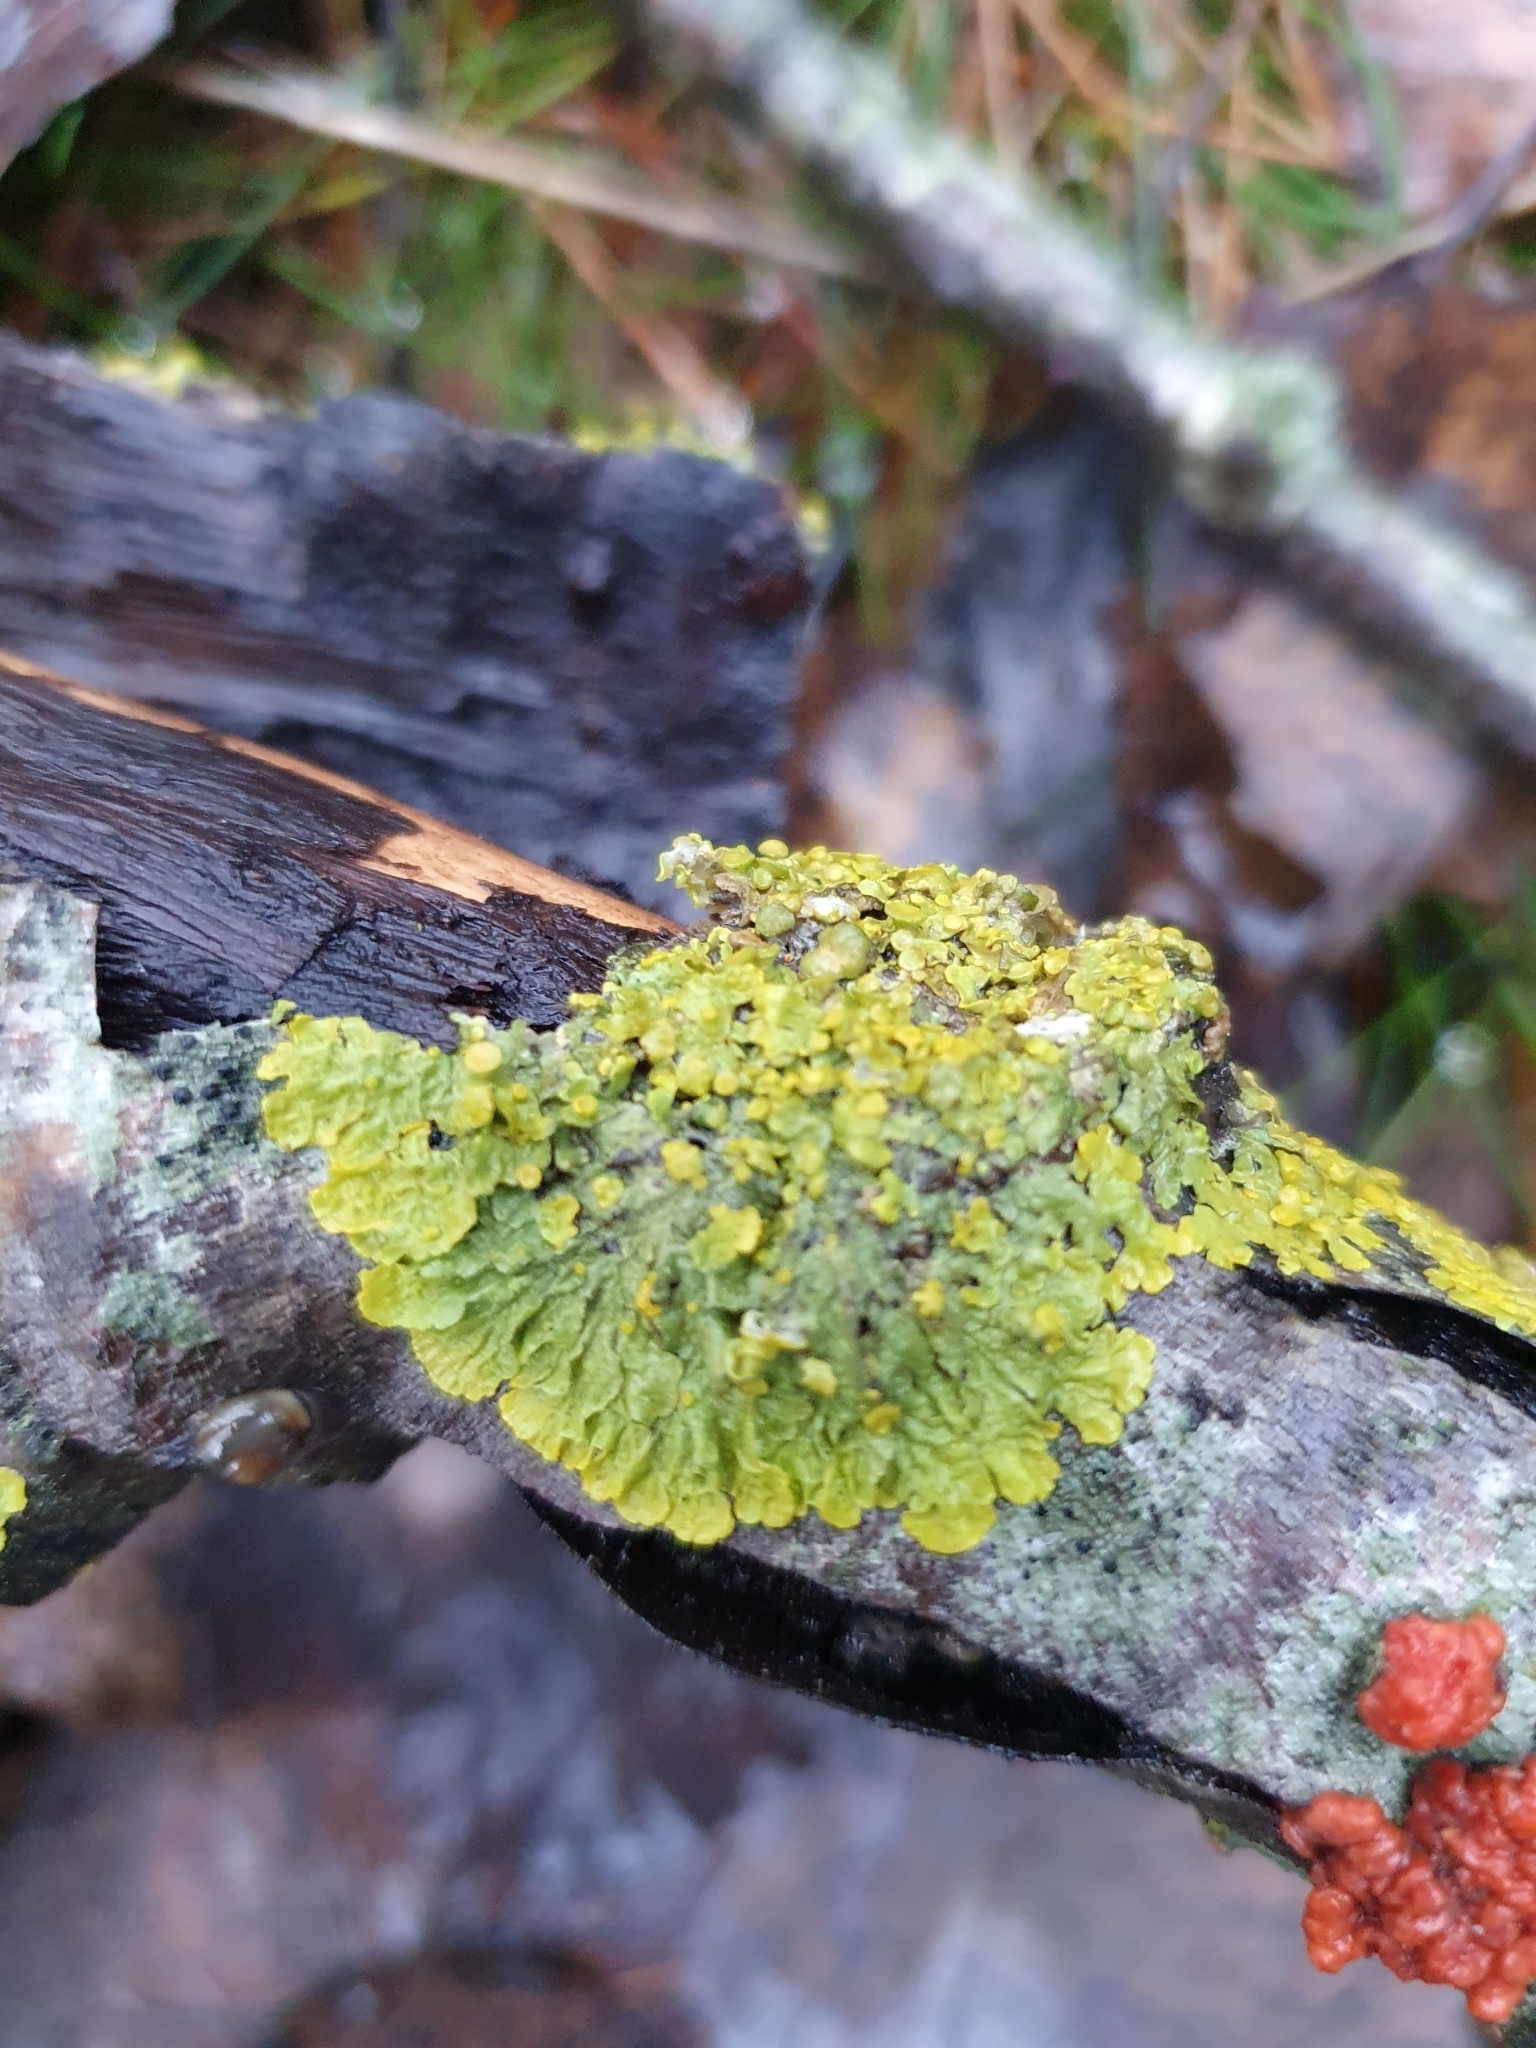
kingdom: Fungi
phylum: Ascomycota
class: Lecanoromycetes
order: Teloschistales
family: Teloschistaceae
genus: Xanthoria
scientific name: Xanthoria parietina
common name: Common orange lichen
